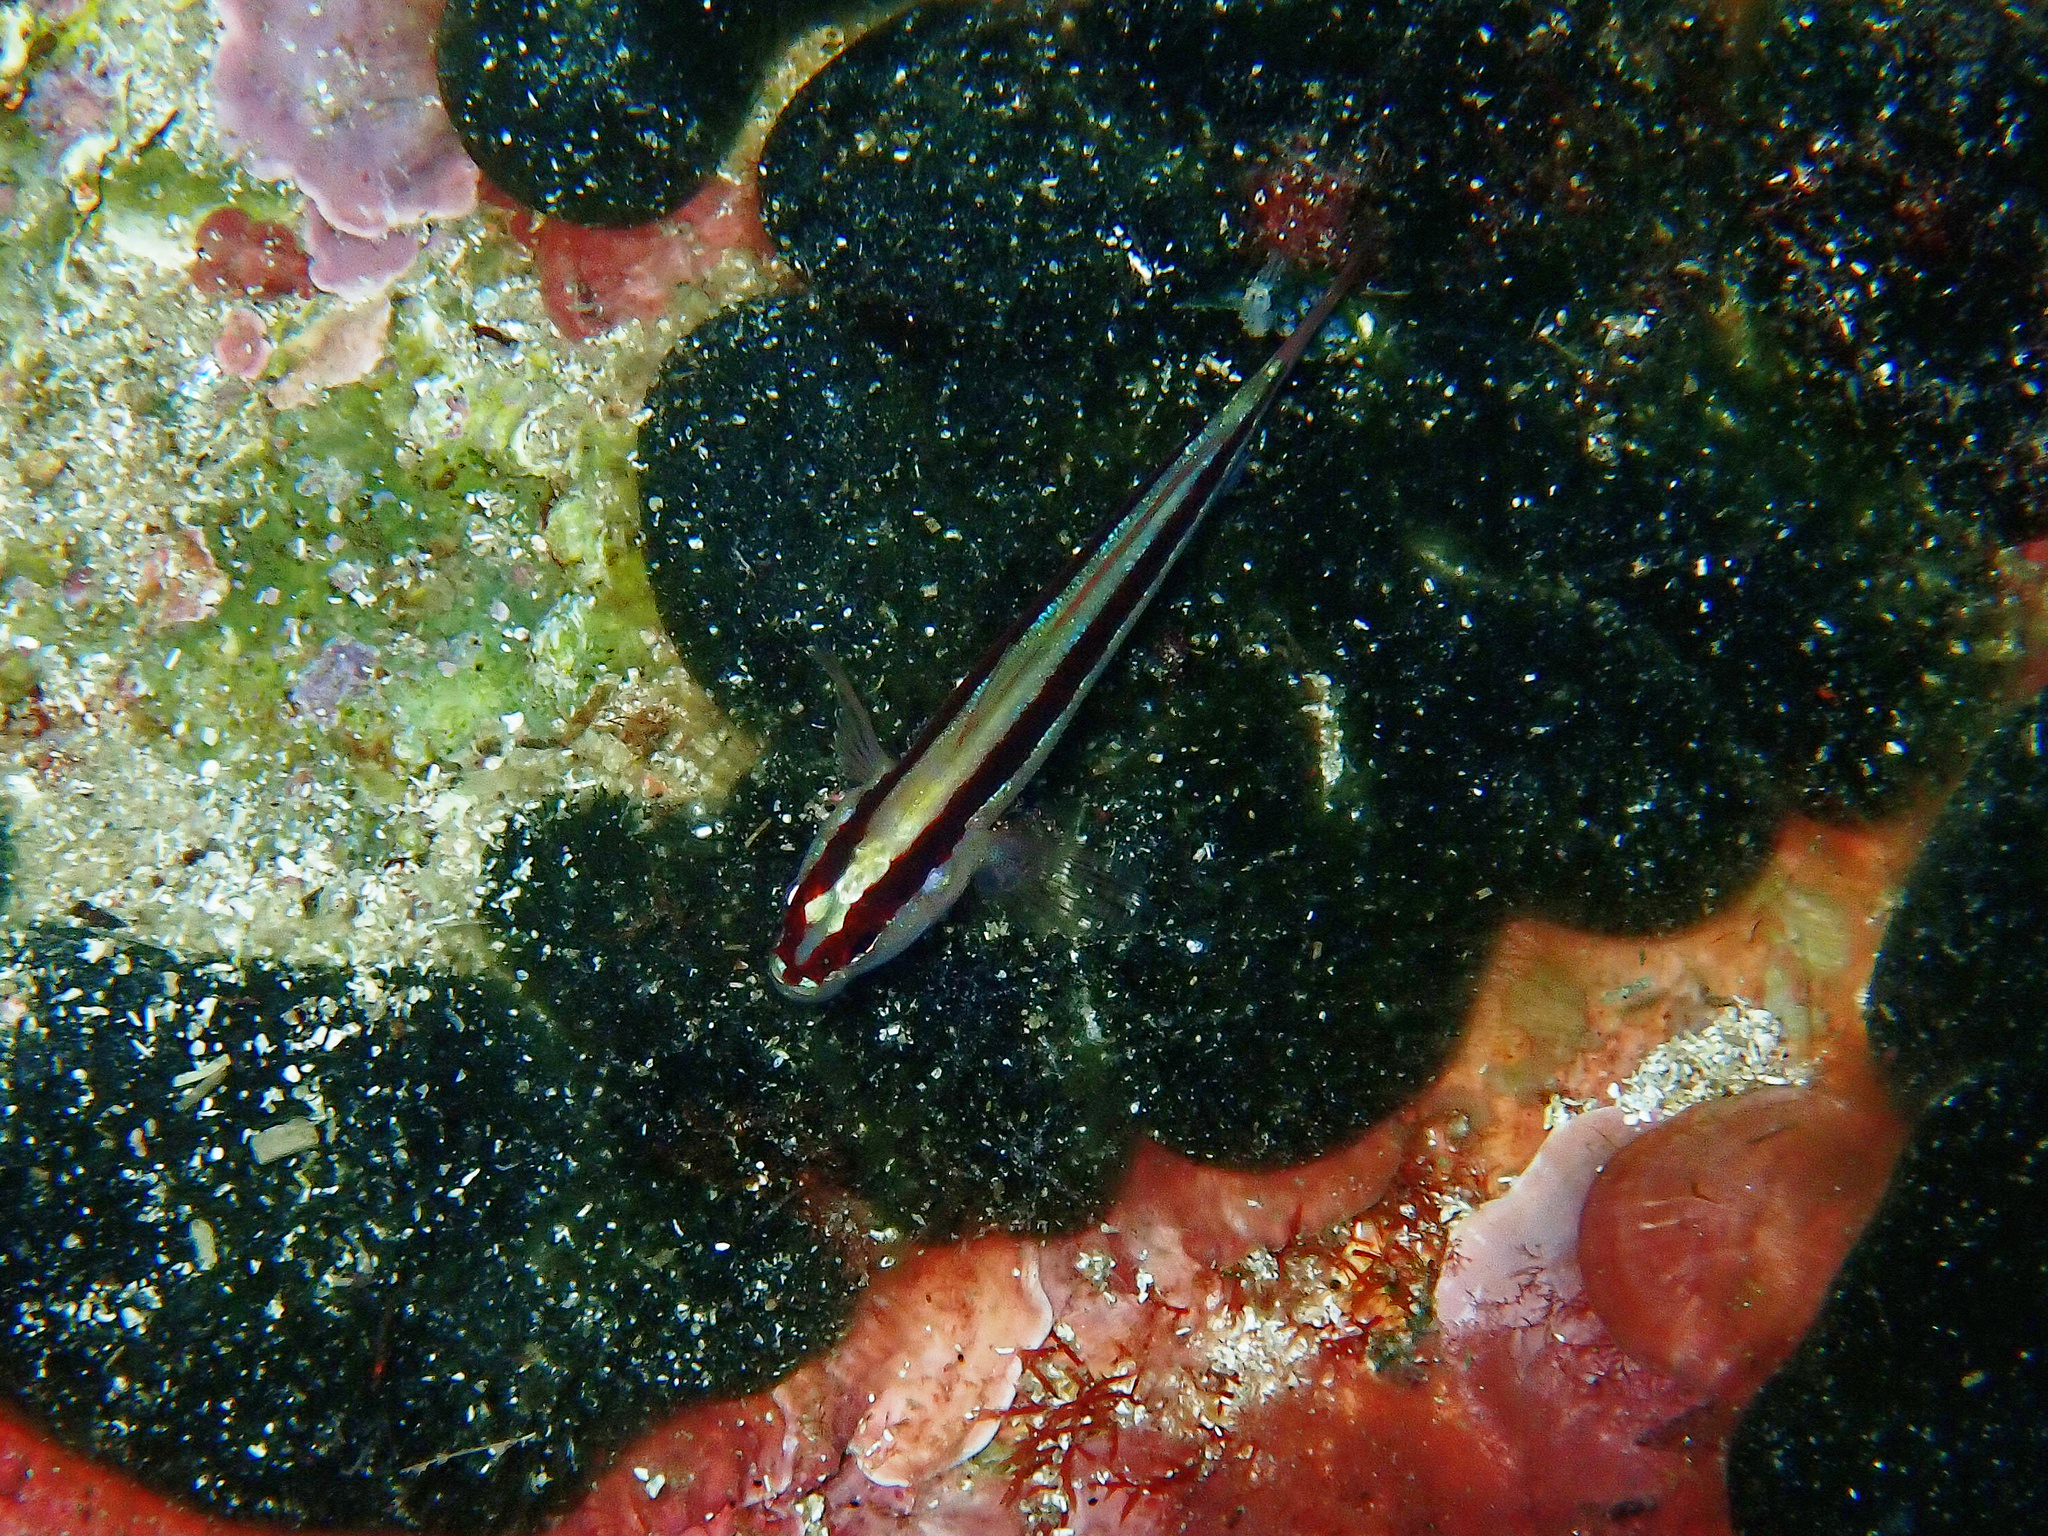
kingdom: Animalia
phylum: Chordata
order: Perciformes
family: Gobiidae
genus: Gobius
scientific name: Gobius vittatus
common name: Striped goby
